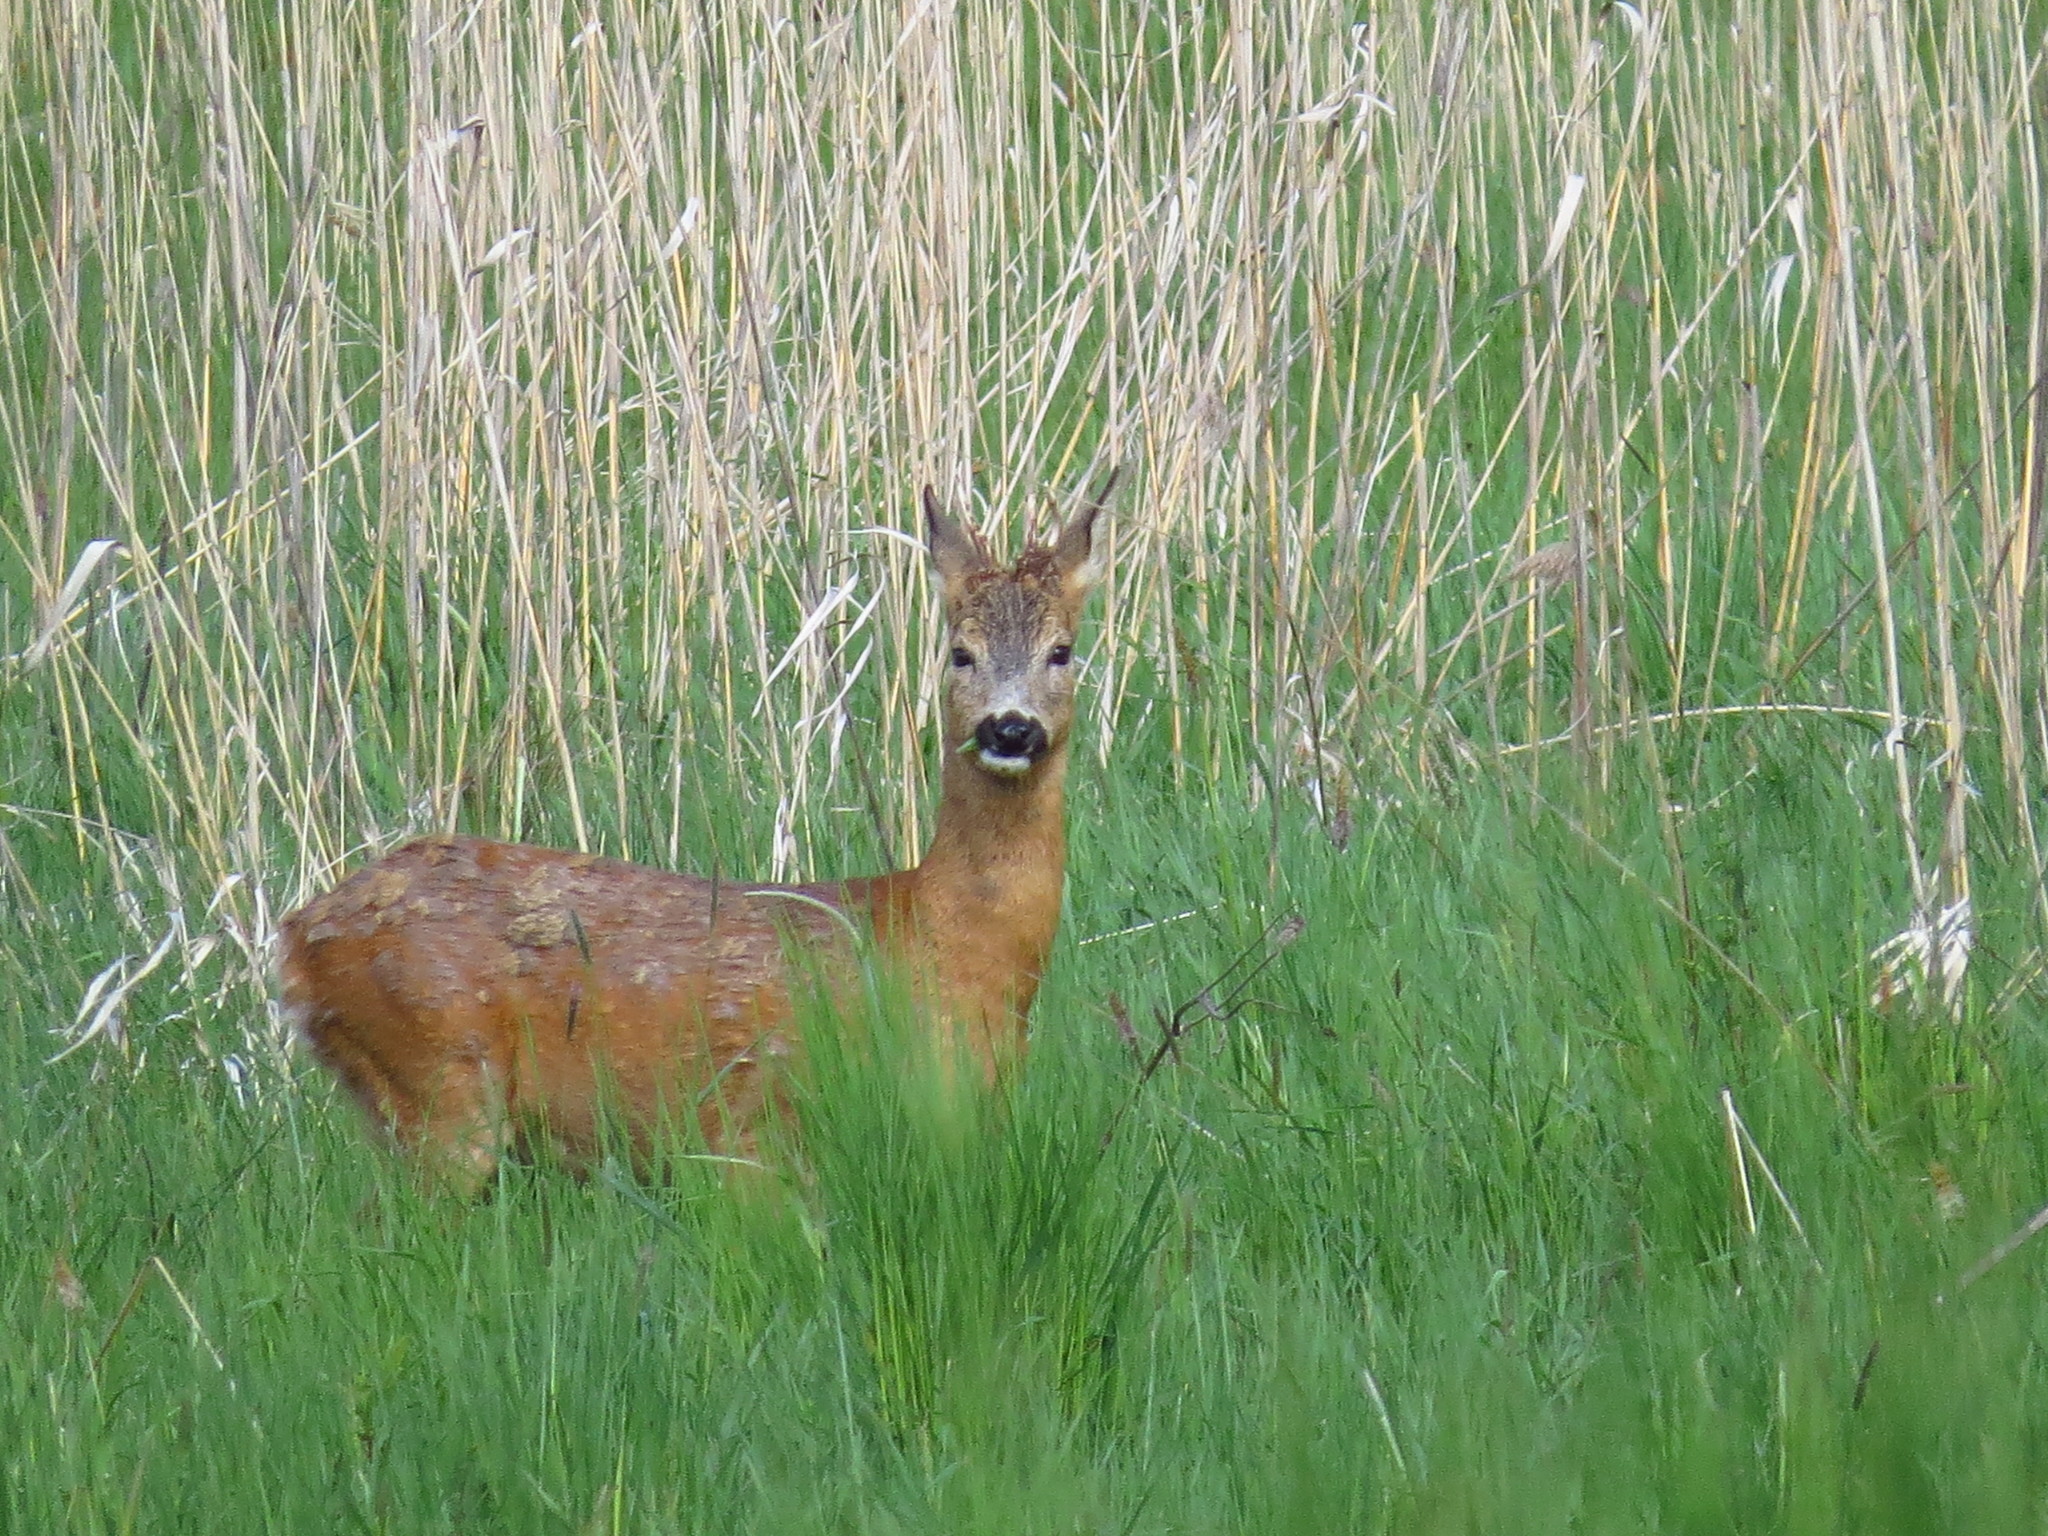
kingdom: Animalia
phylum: Chordata
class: Mammalia
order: Artiodactyla
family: Cervidae
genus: Capreolus
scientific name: Capreolus capreolus
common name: Western roe deer
